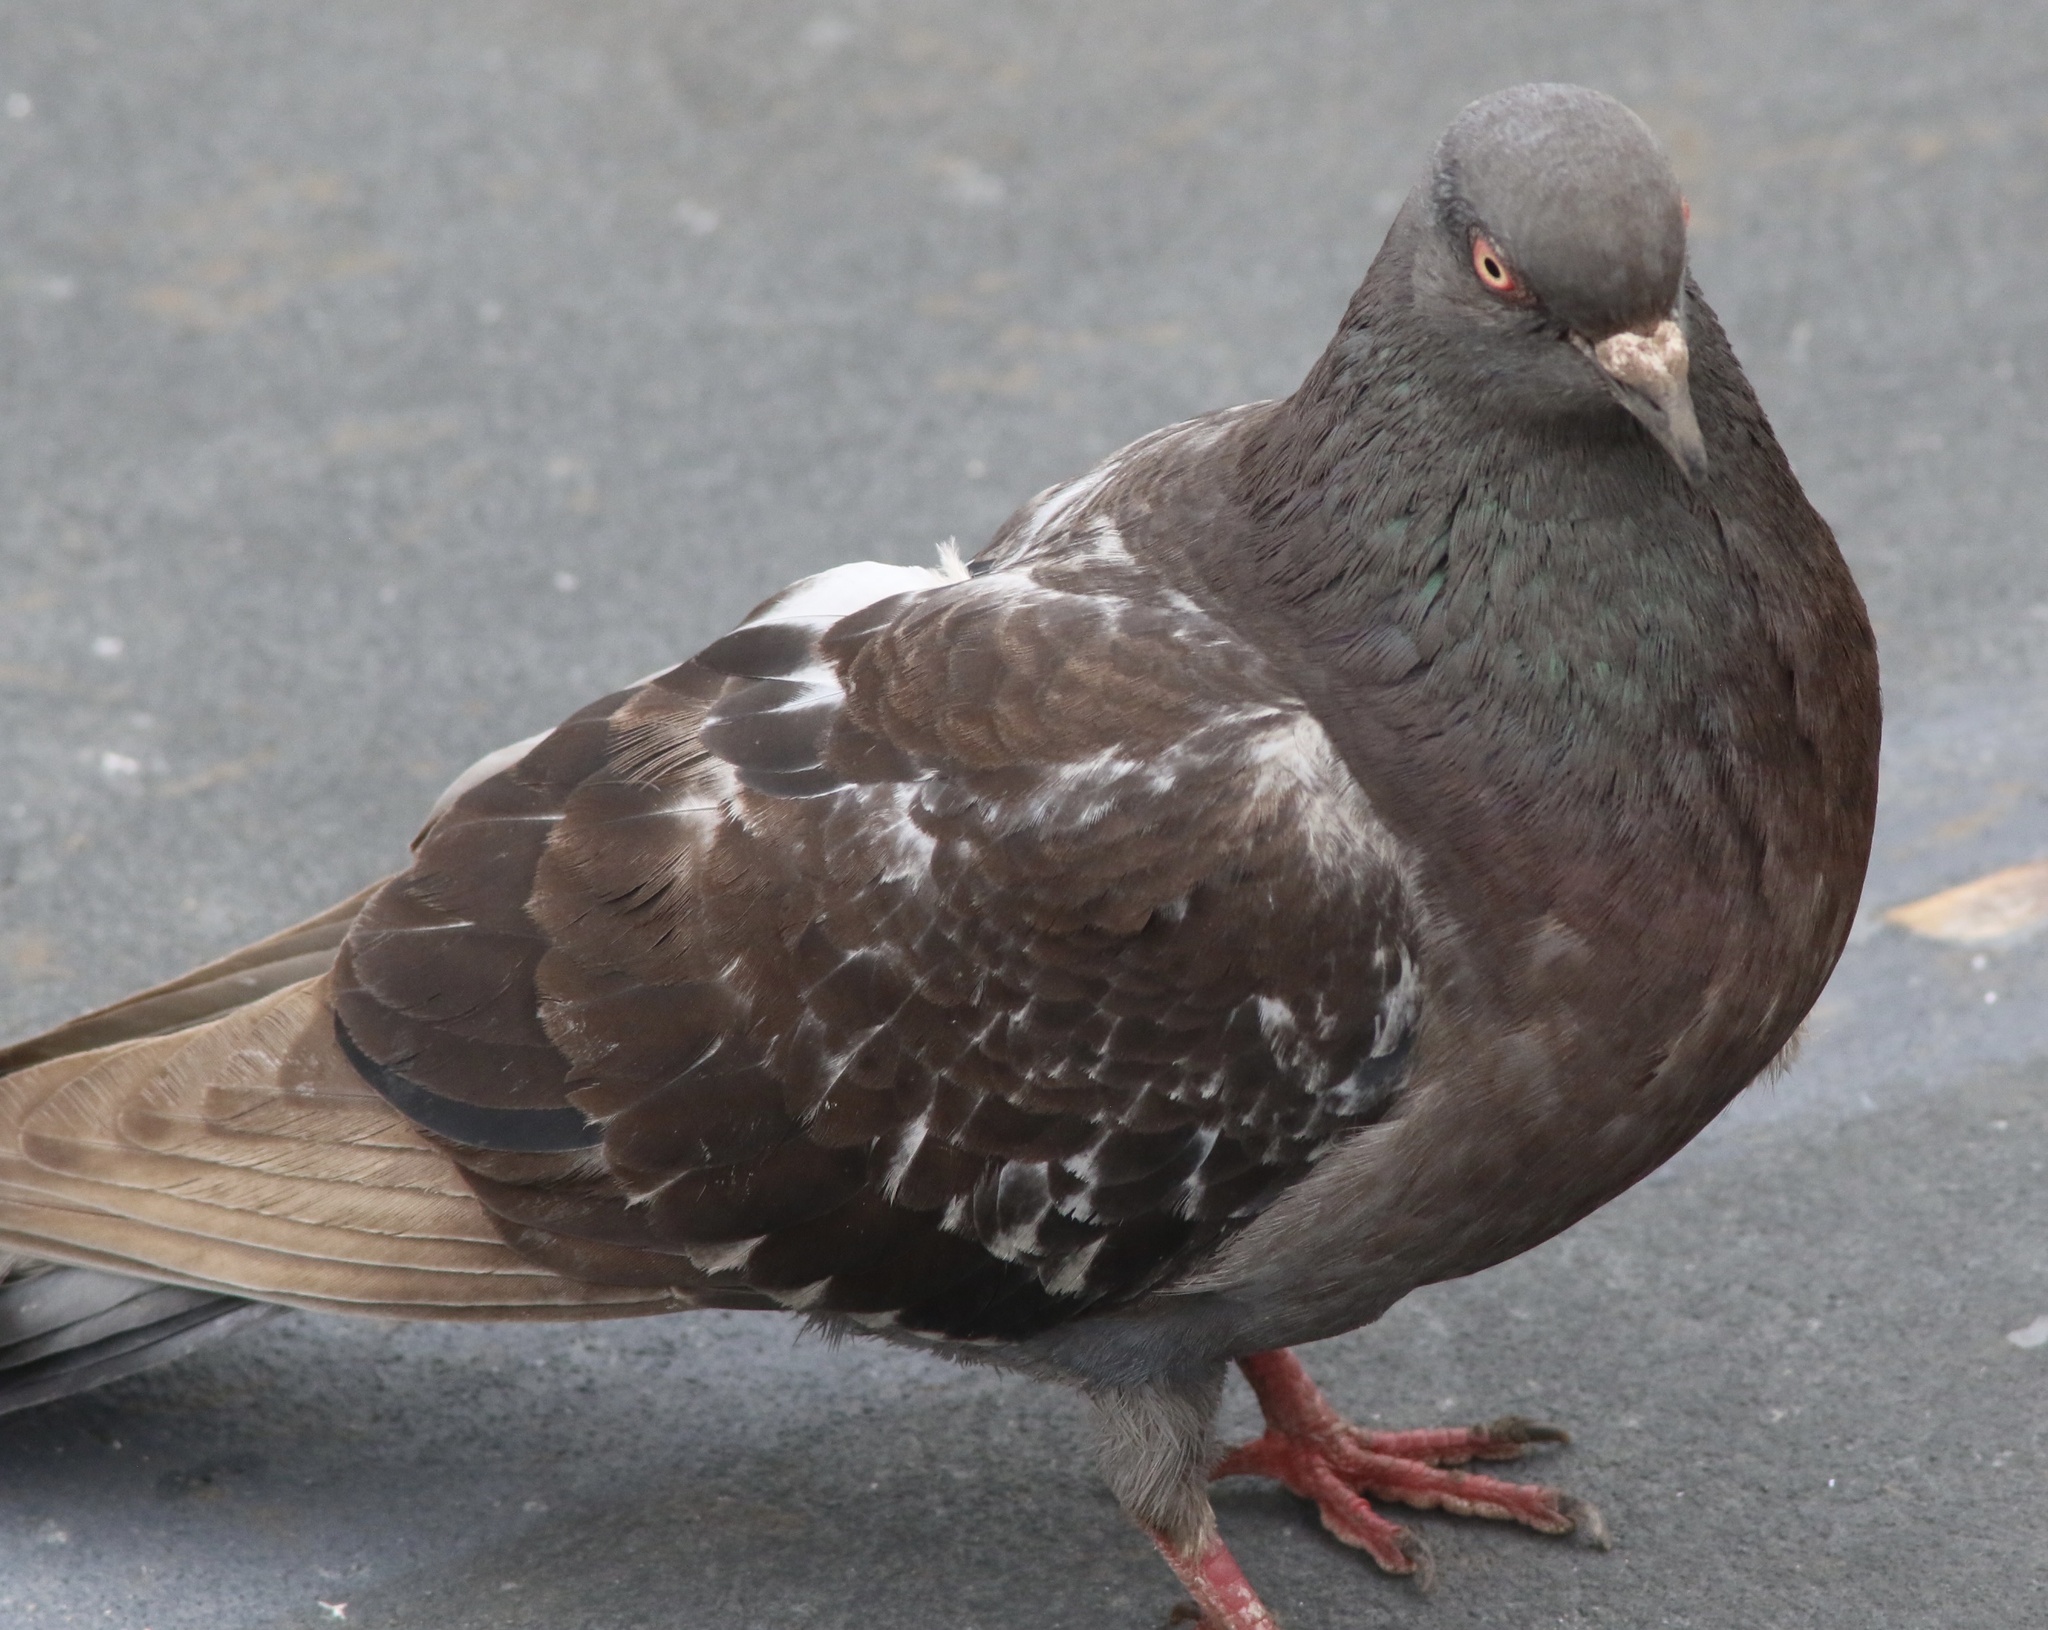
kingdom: Animalia
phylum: Chordata
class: Aves
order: Columbiformes
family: Columbidae
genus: Columba
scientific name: Columba livia
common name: Rock pigeon
